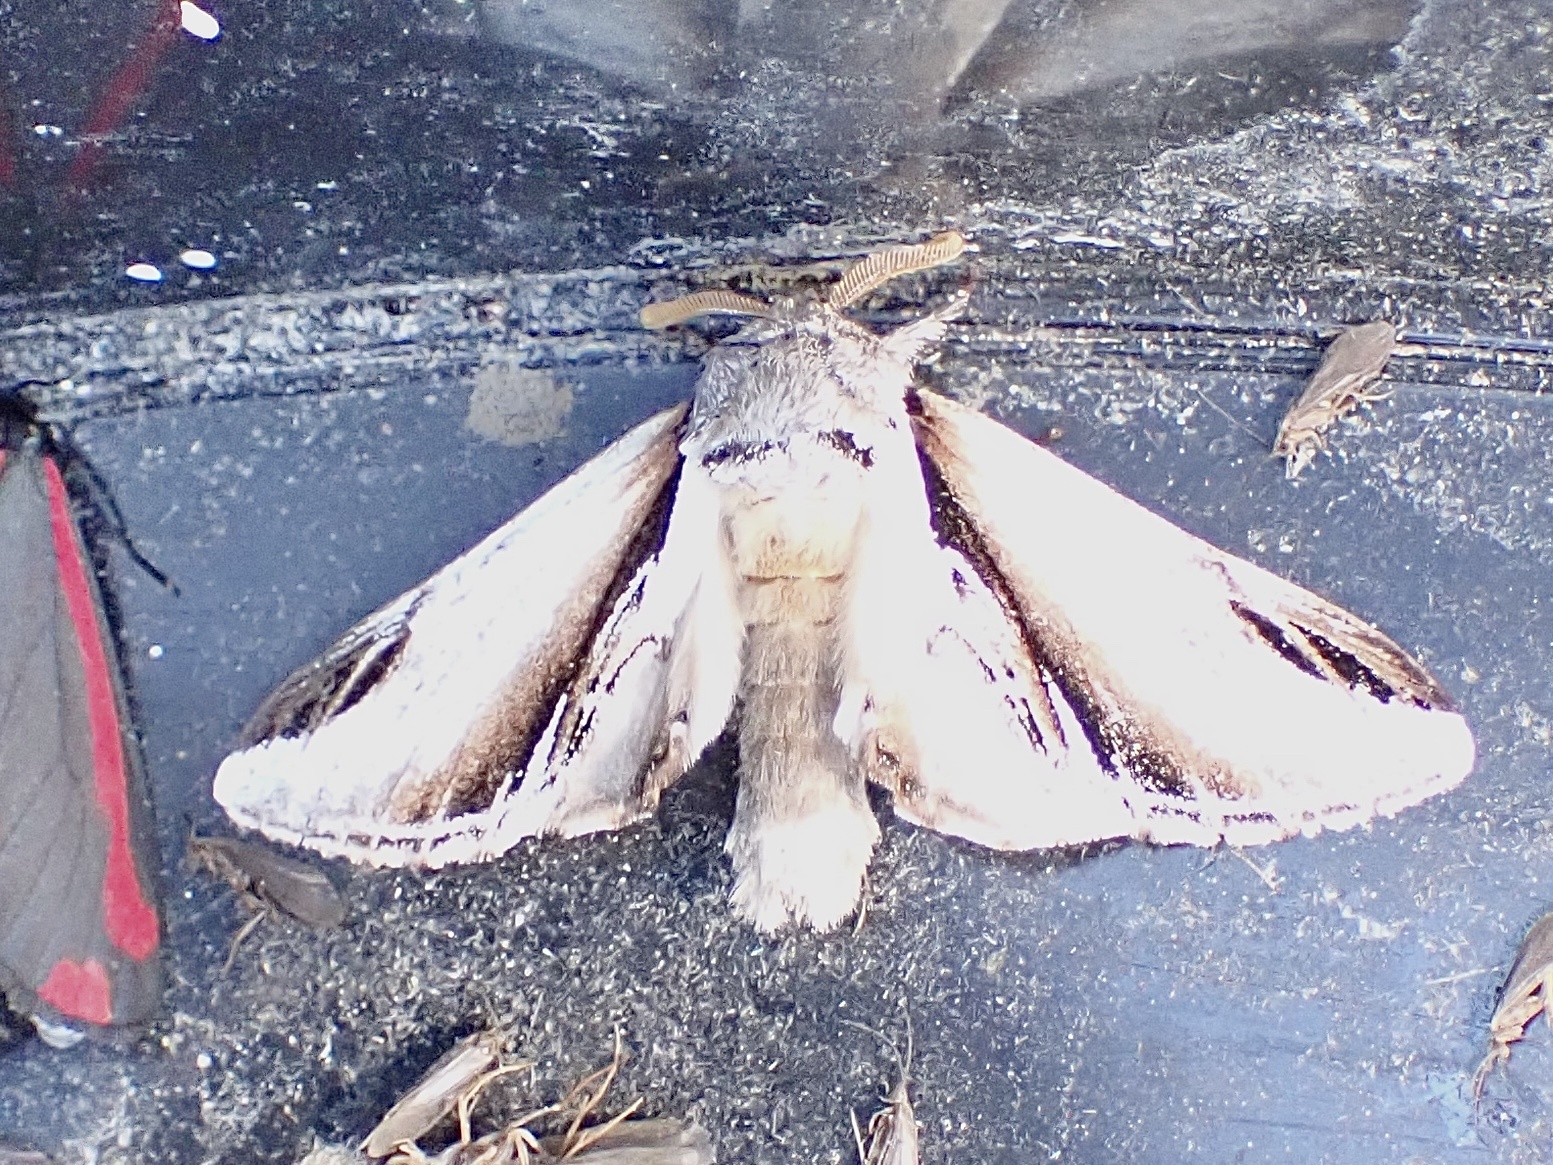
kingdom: Animalia
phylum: Arthropoda
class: Insecta
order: Lepidoptera
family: Notodontidae
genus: Pheosia
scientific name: Pheosia gnoma
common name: Lesser swallow prominent
